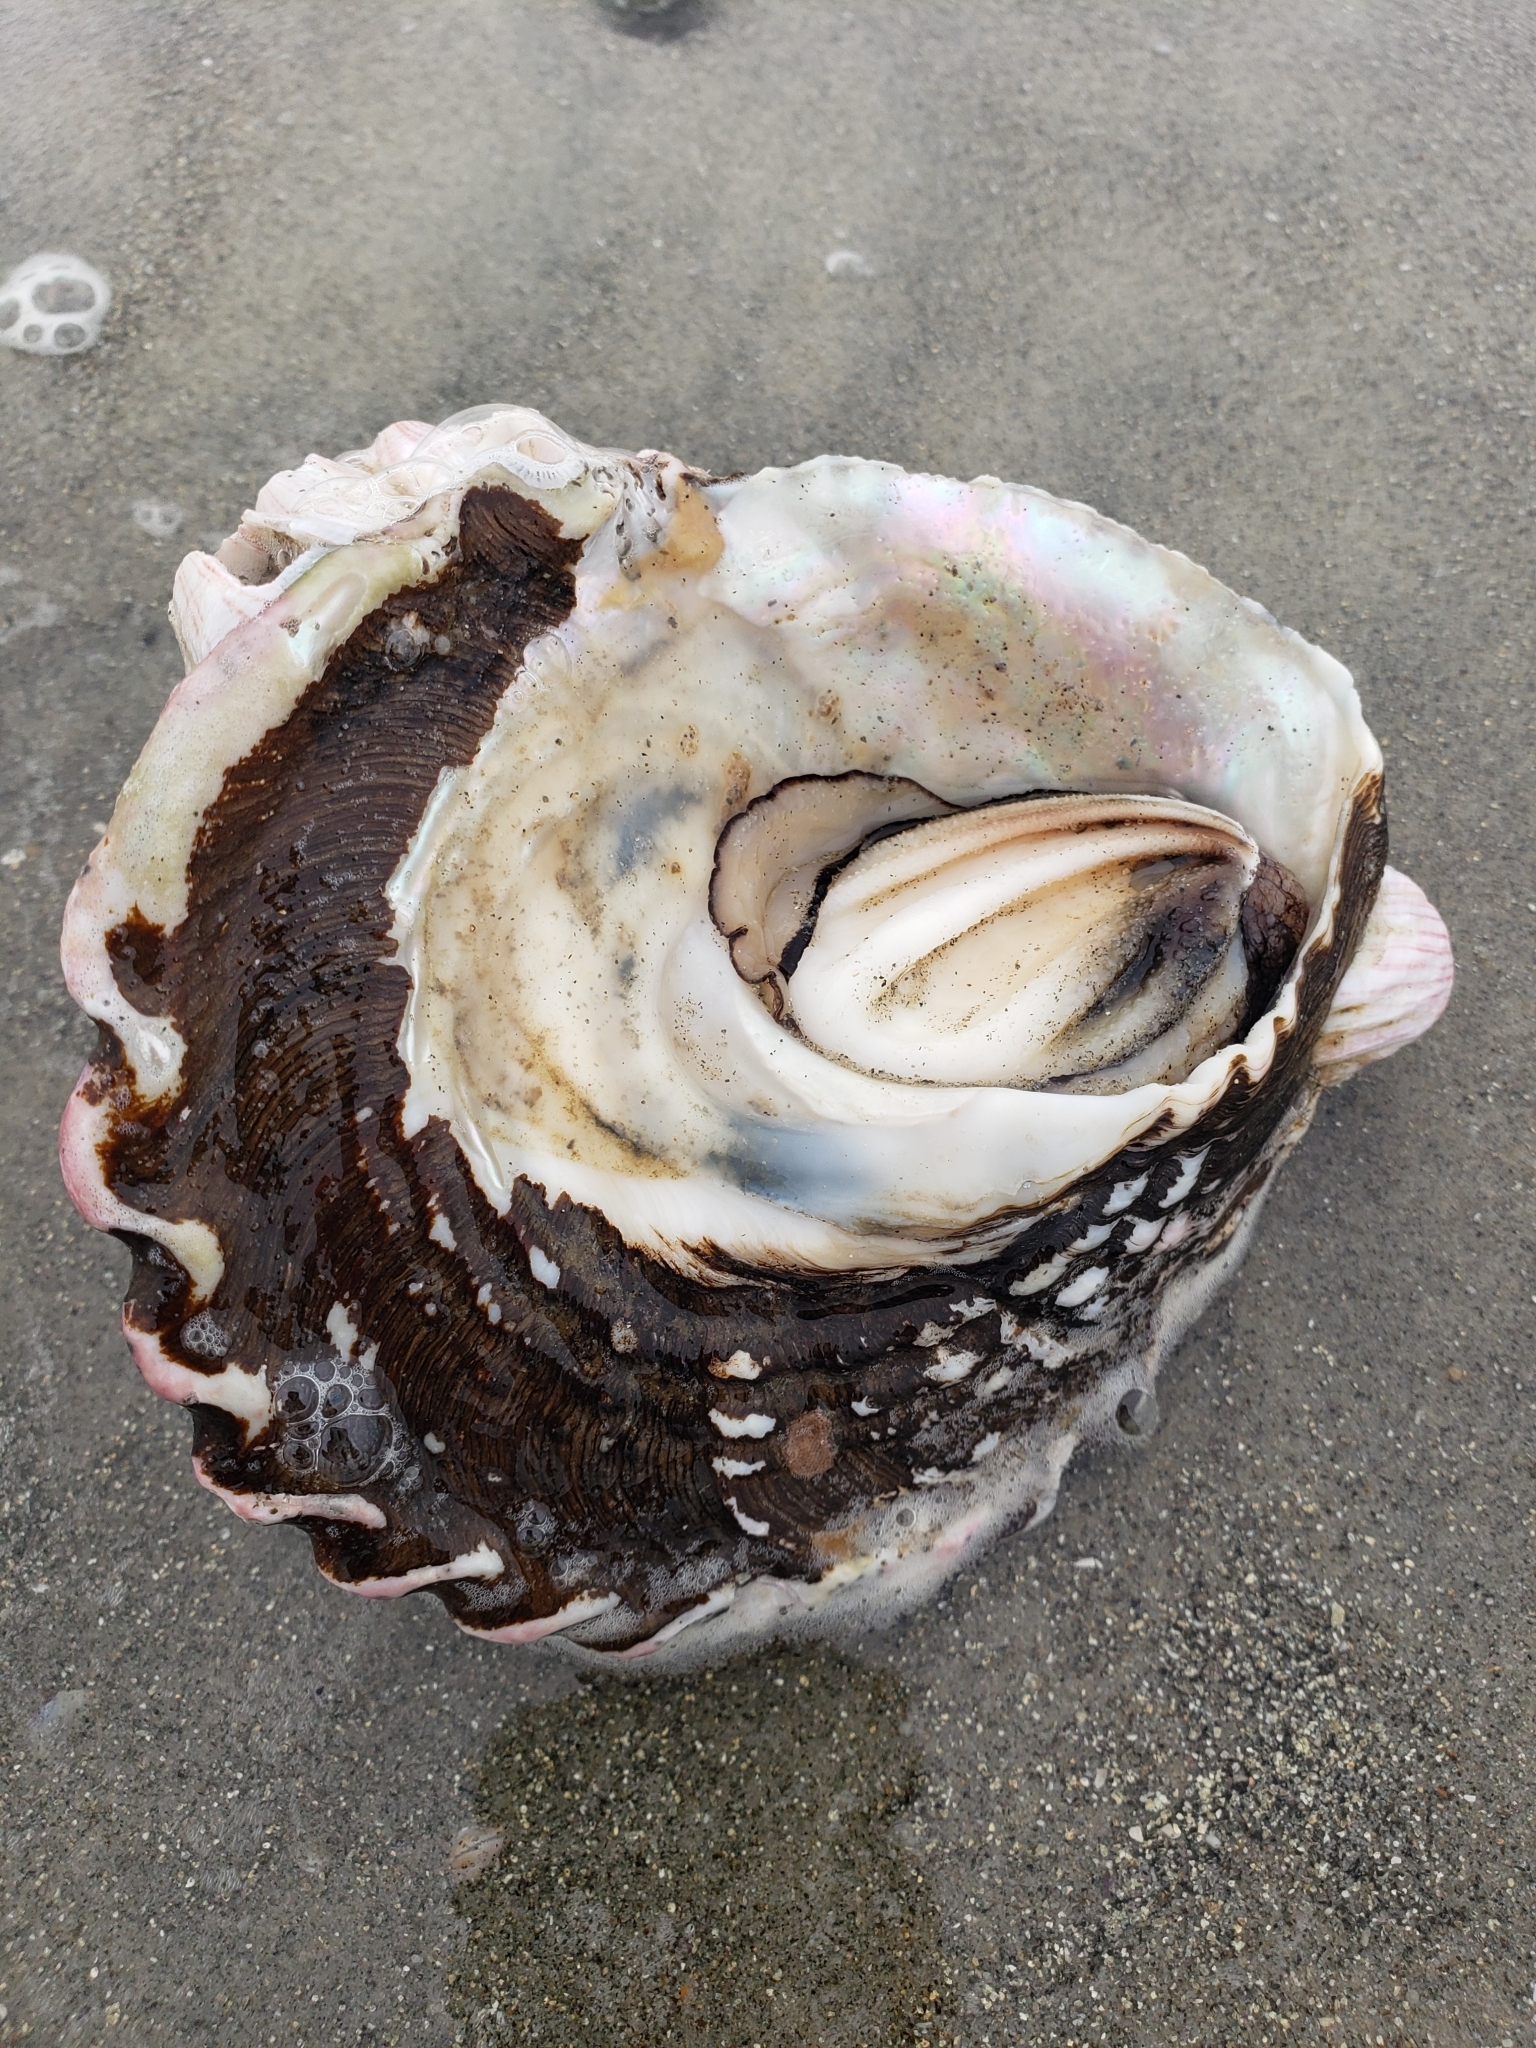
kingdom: Animalia
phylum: Mollusca
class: Gastropoda
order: Trochida
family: Turbinidae
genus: Megastraea
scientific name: Megastraea undosa
